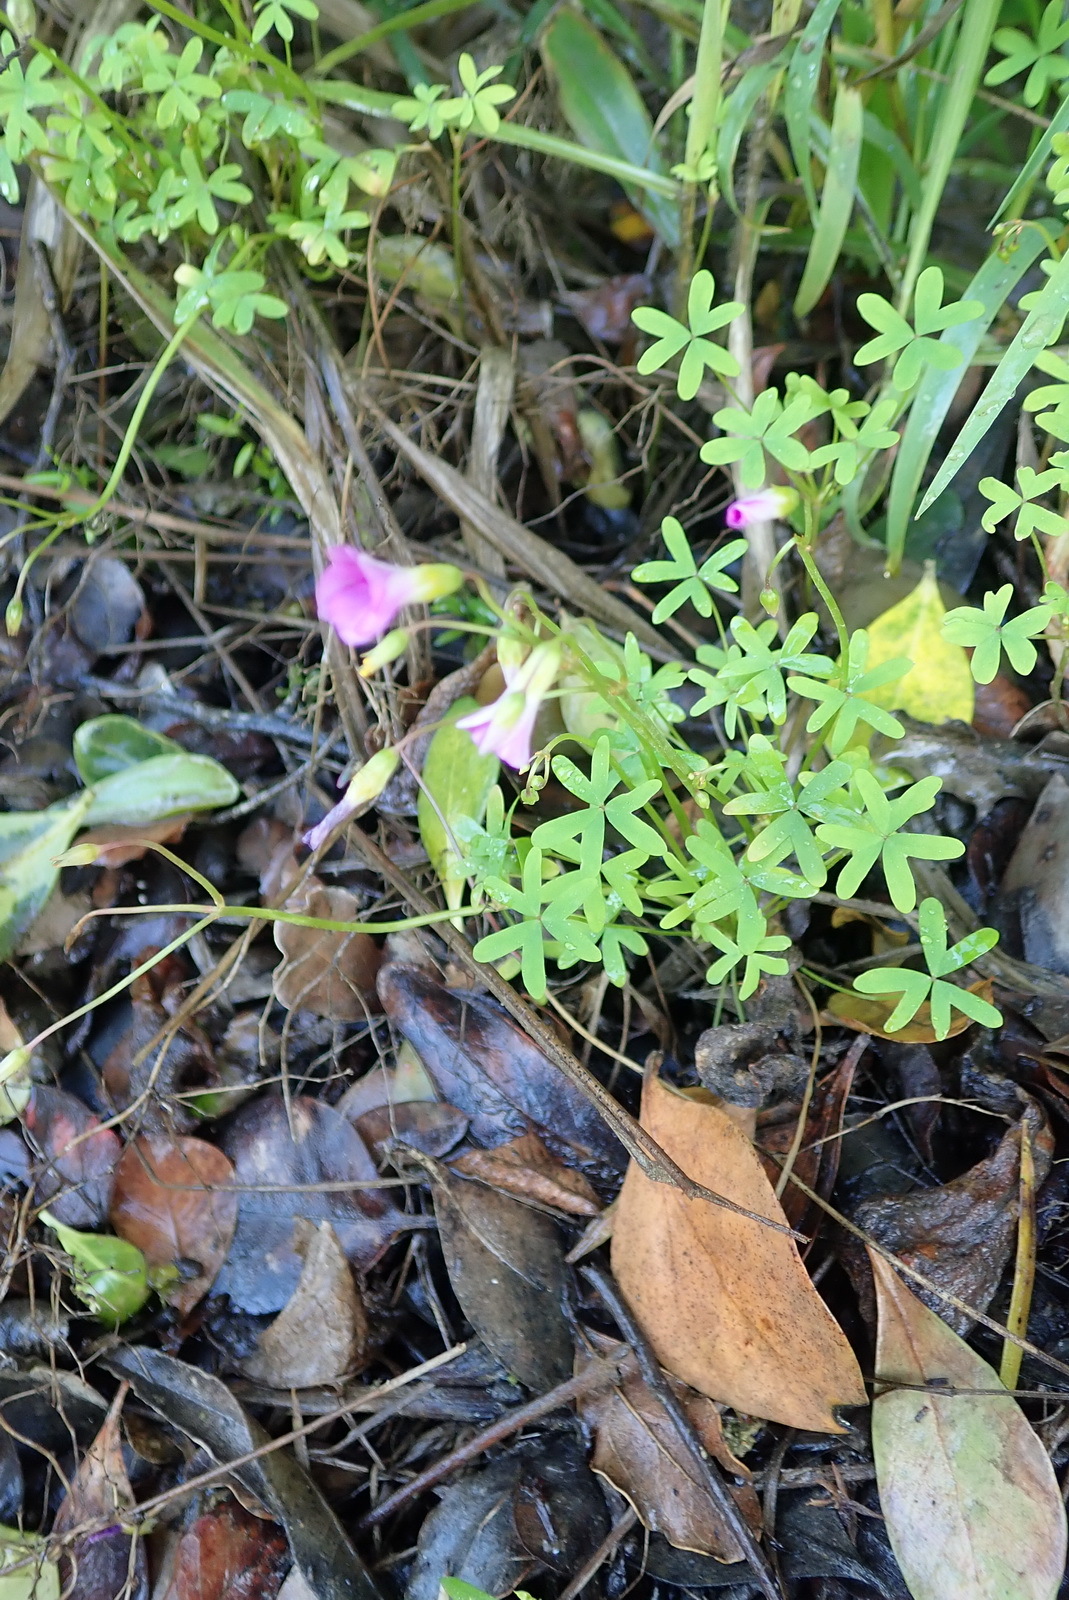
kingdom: Plantae
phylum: Tracheophyta
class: Magnoliopsida
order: Oxalidales
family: Oxalidaceae
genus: Oxalis
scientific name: Oxalis stellata
